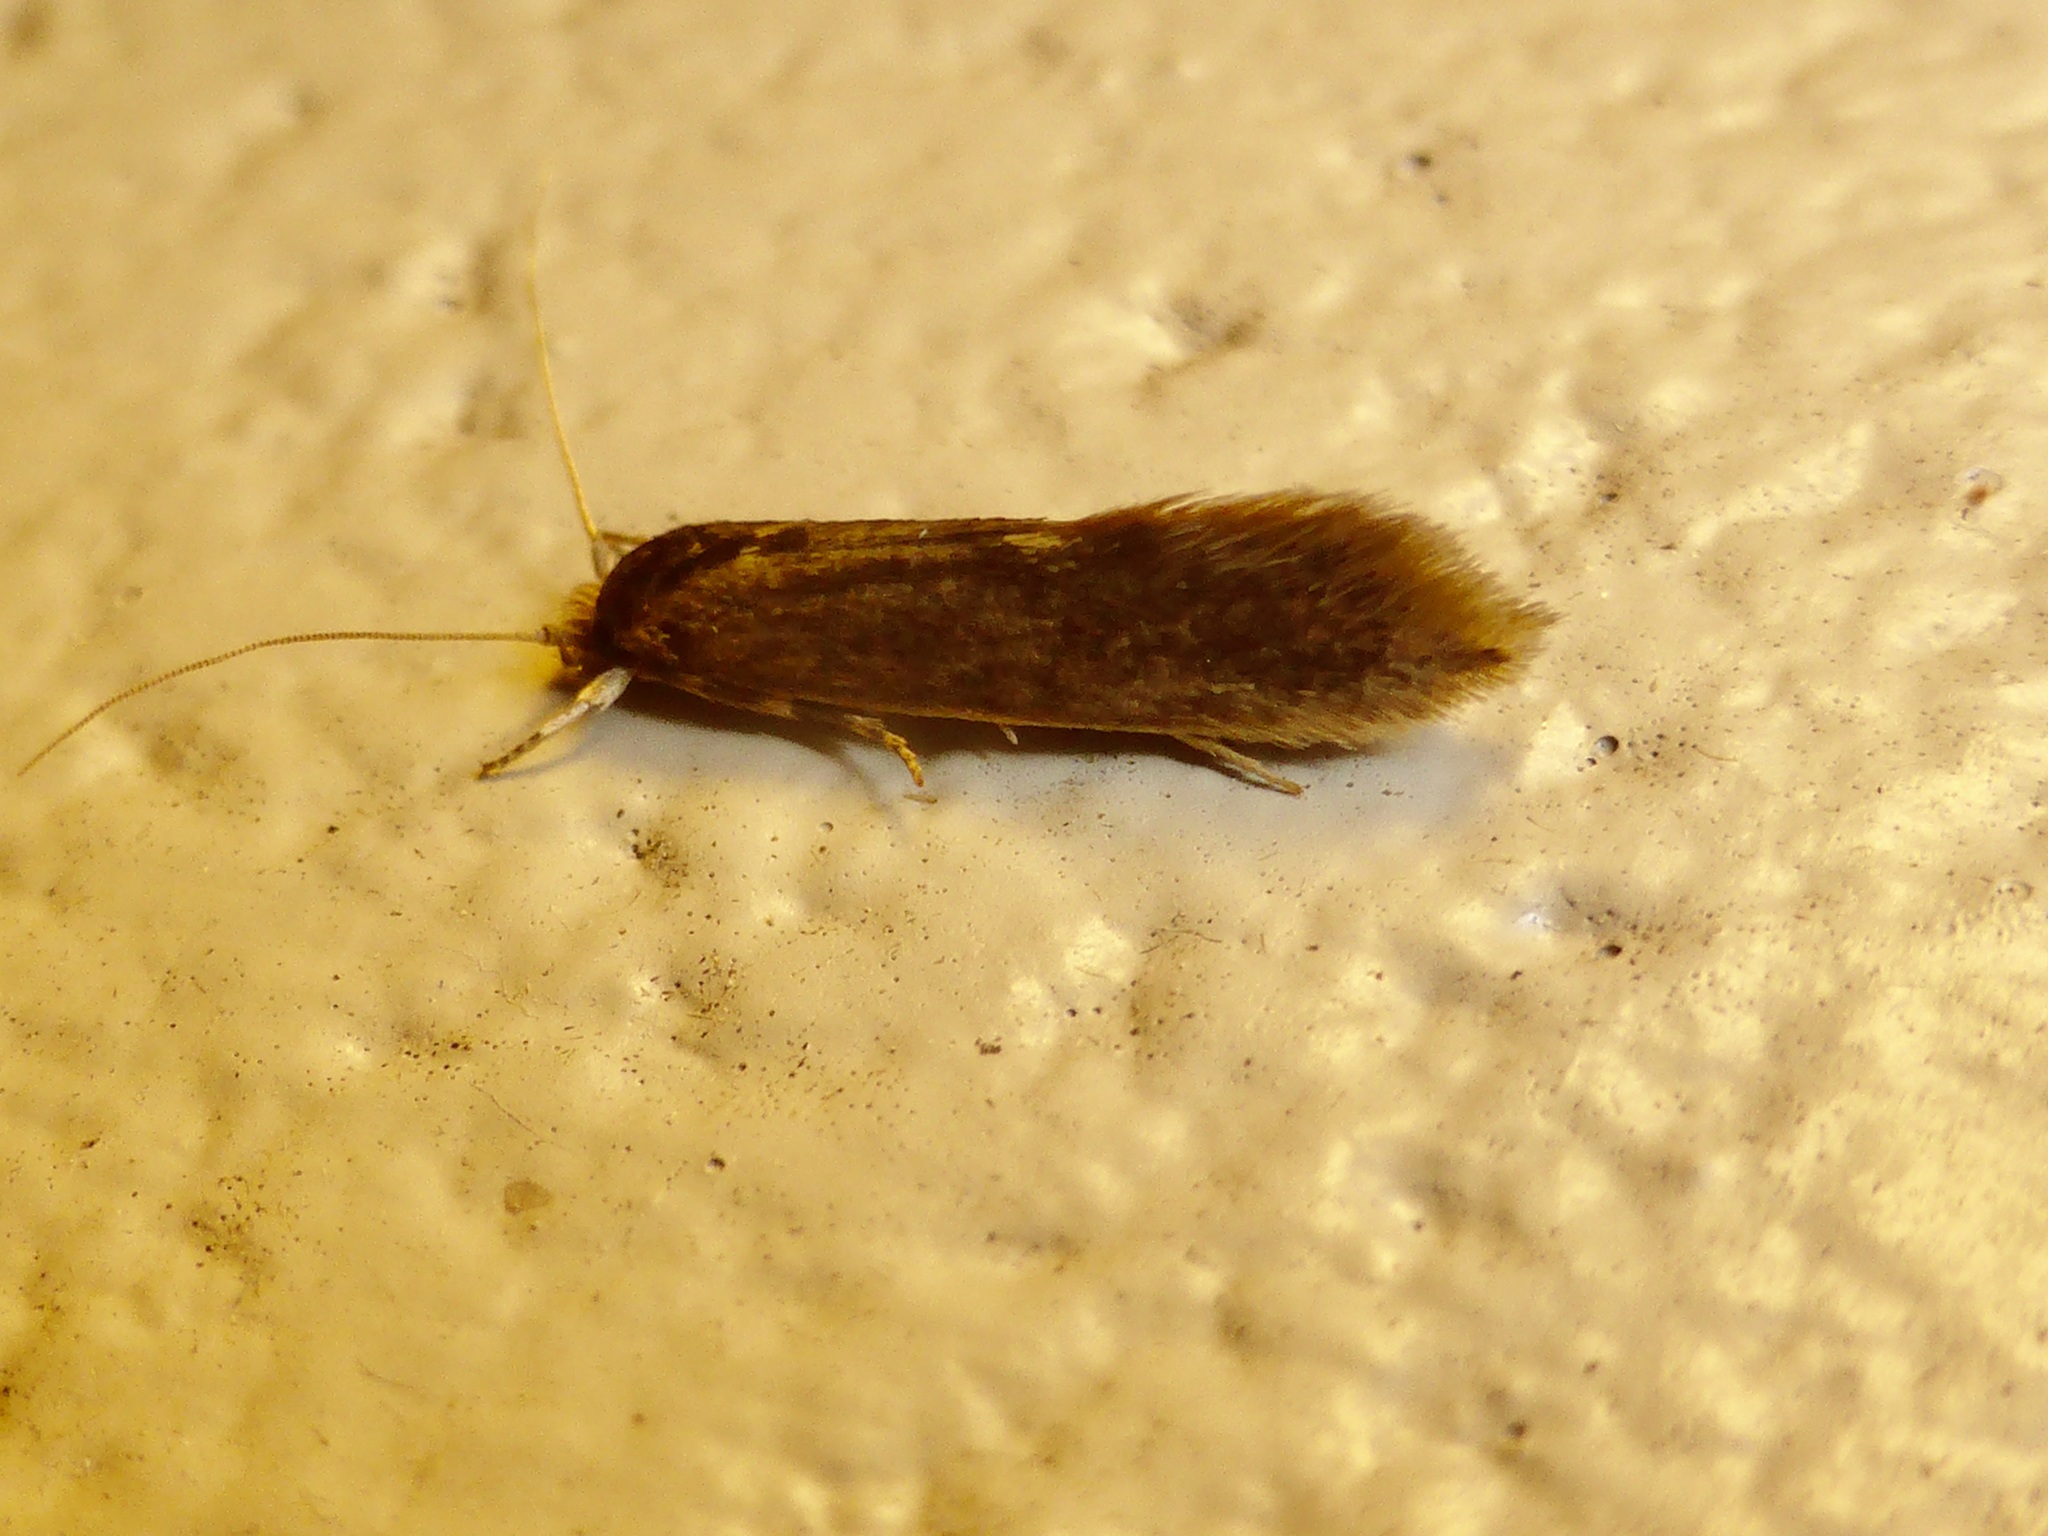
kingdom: Animalia
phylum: Arthropoda
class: Insecta
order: Lepidoptera
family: Tineidae
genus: Opogona
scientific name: Opogona omoscopa
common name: Moth
